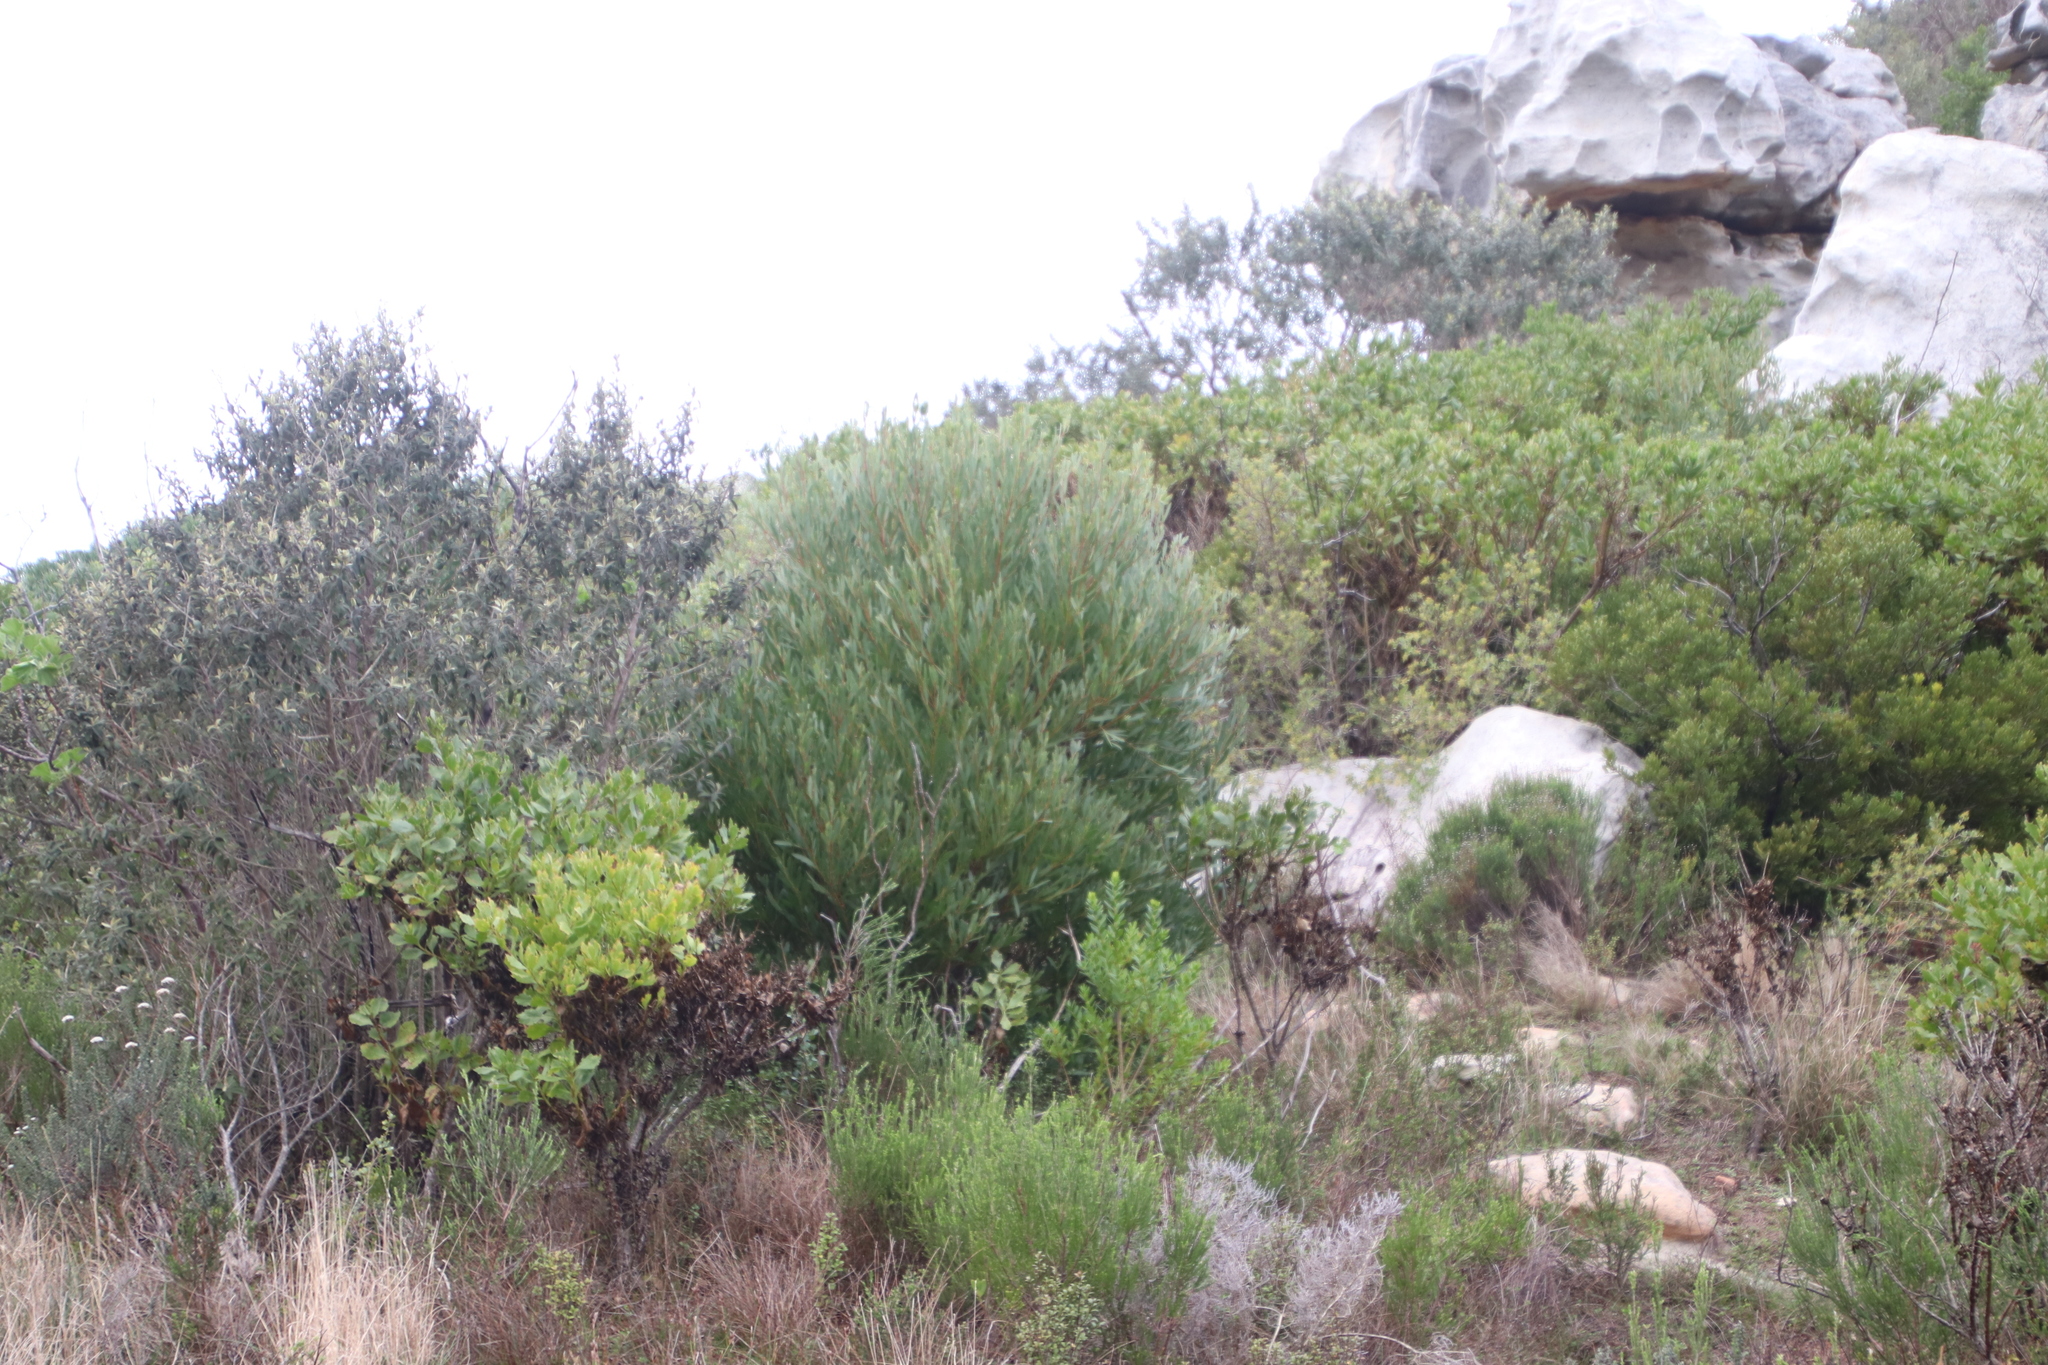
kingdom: Plantae
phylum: Tracheophyta
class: Magnoliopsida
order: Fabales
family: Fabaceae
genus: Acacia
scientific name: Acacia cyclops
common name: Coastal wattle
